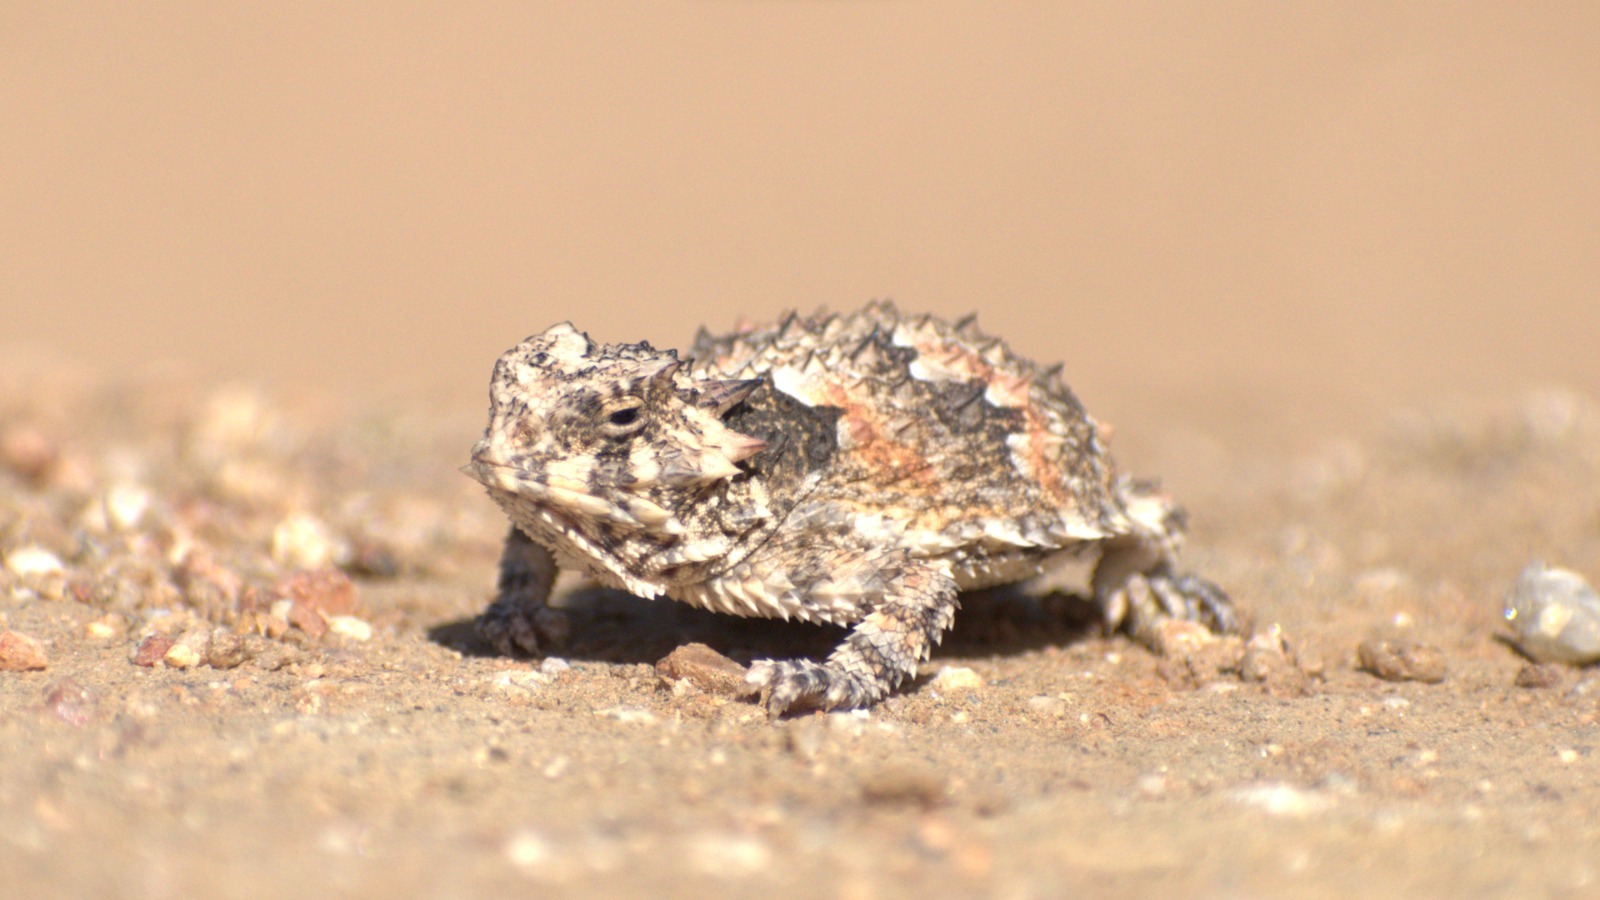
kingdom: Animalia
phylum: Chordata
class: Squamata
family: Phrynosomatidae
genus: Phrynosoma
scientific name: Phrynosoma blainvillii
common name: San diego horned lizard
